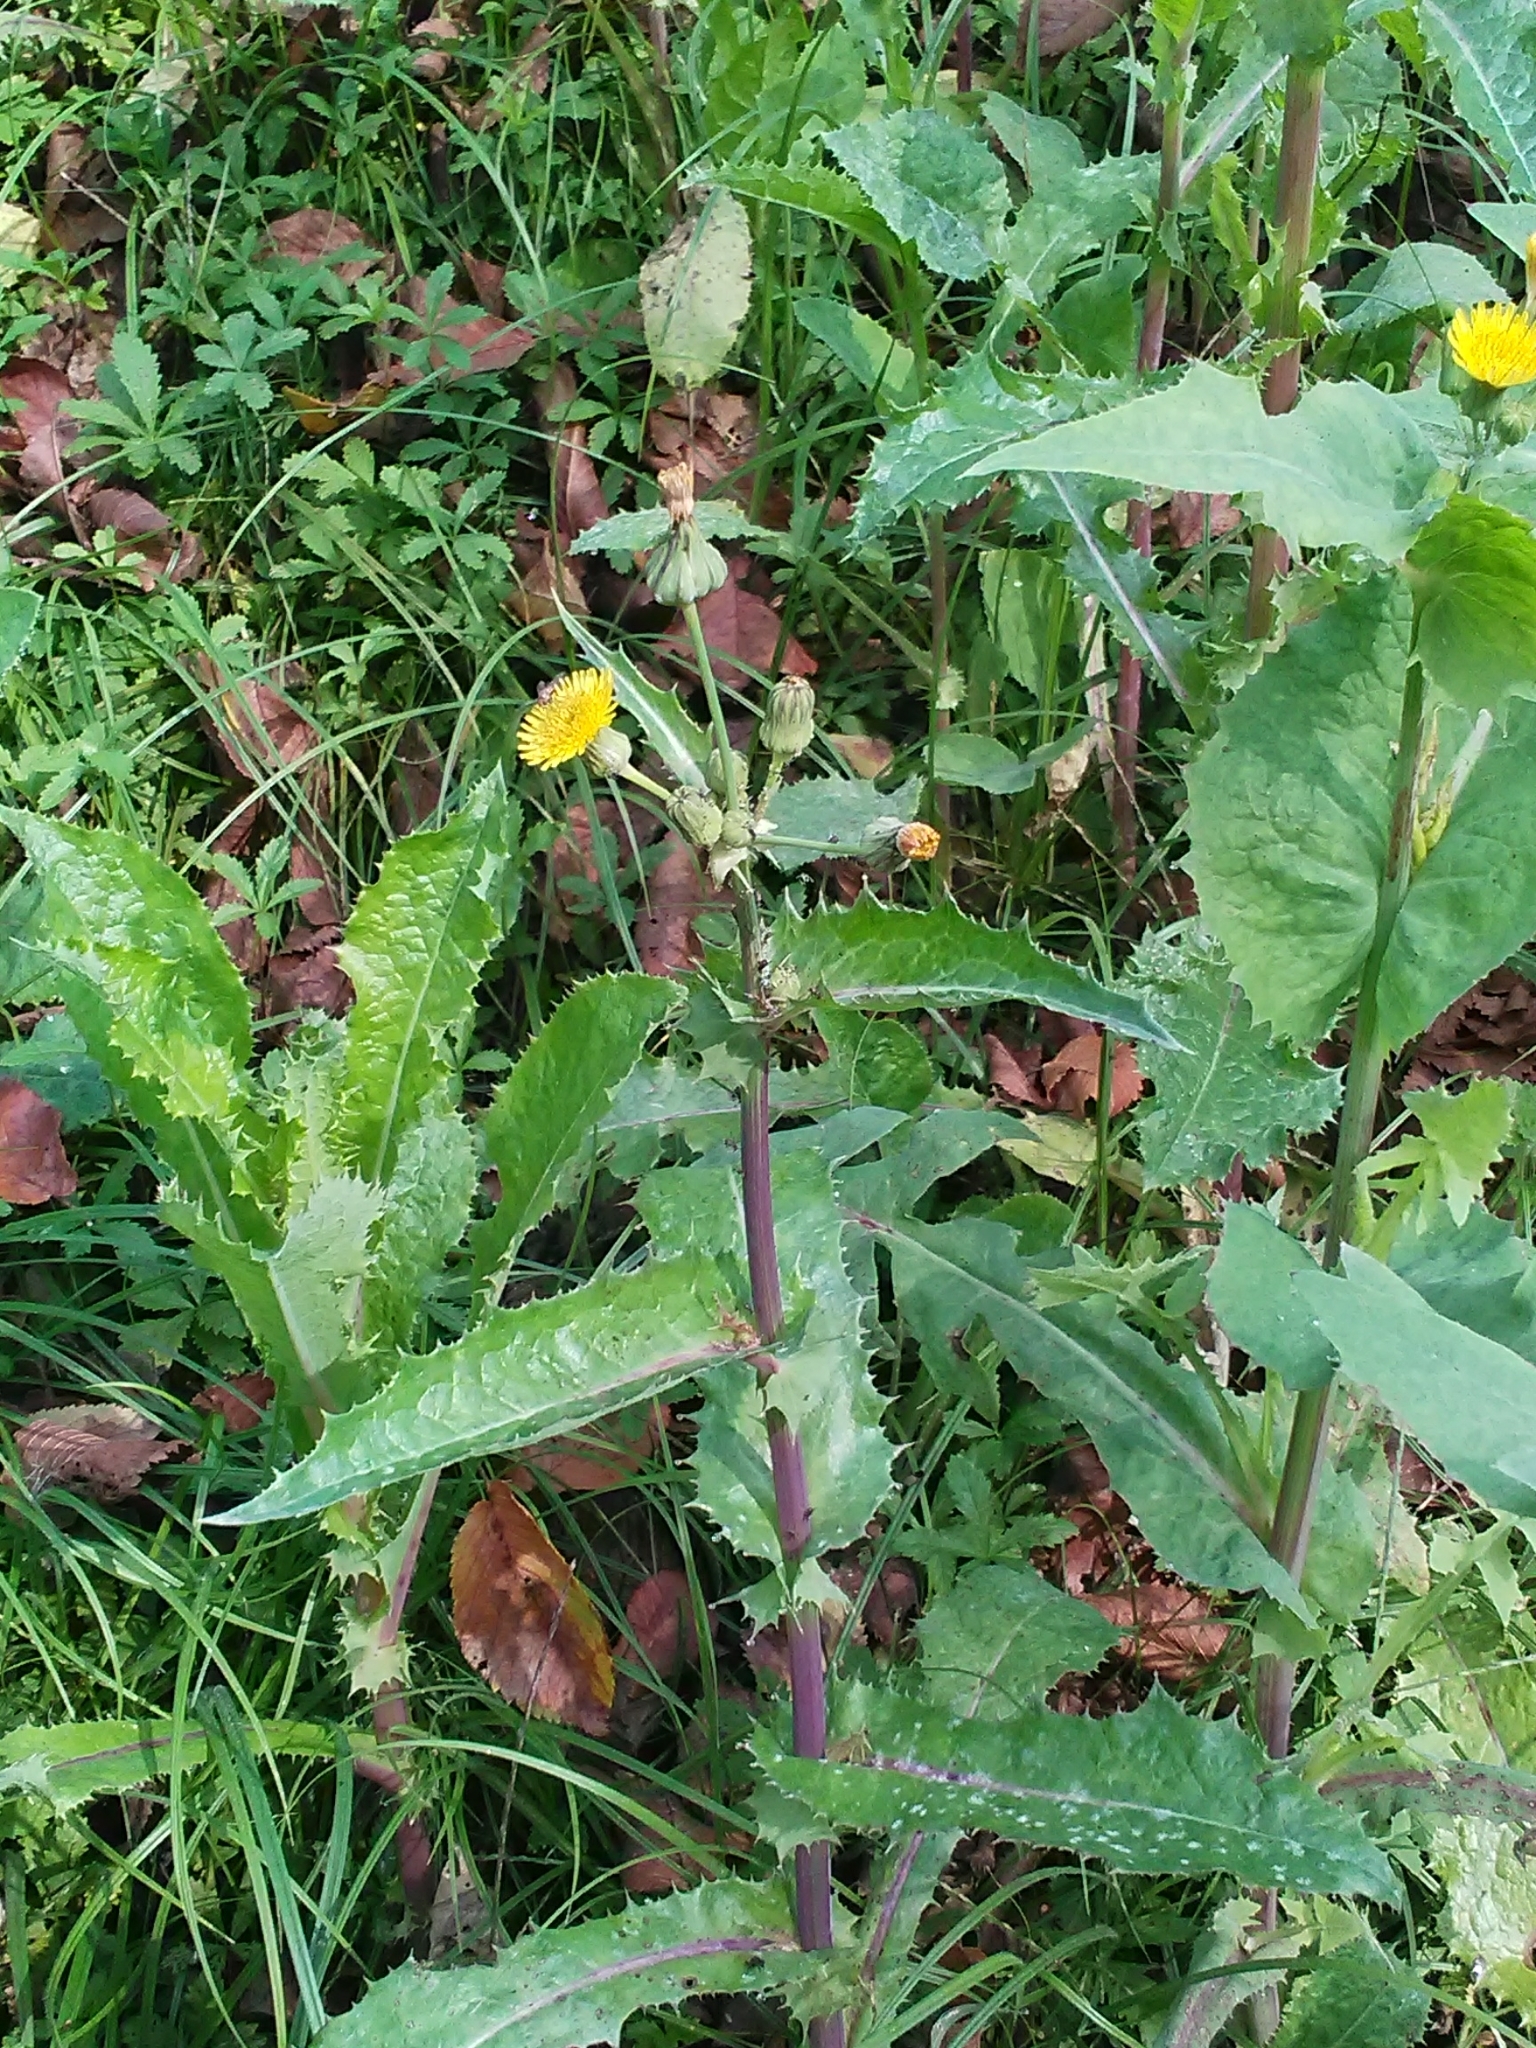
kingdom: Plantae
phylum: Tracheophyta
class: Magnoliopsida
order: Asterales
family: Asteraceae
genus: Sonchus
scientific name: Sonchus asper
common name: Prickly sow-thistle
